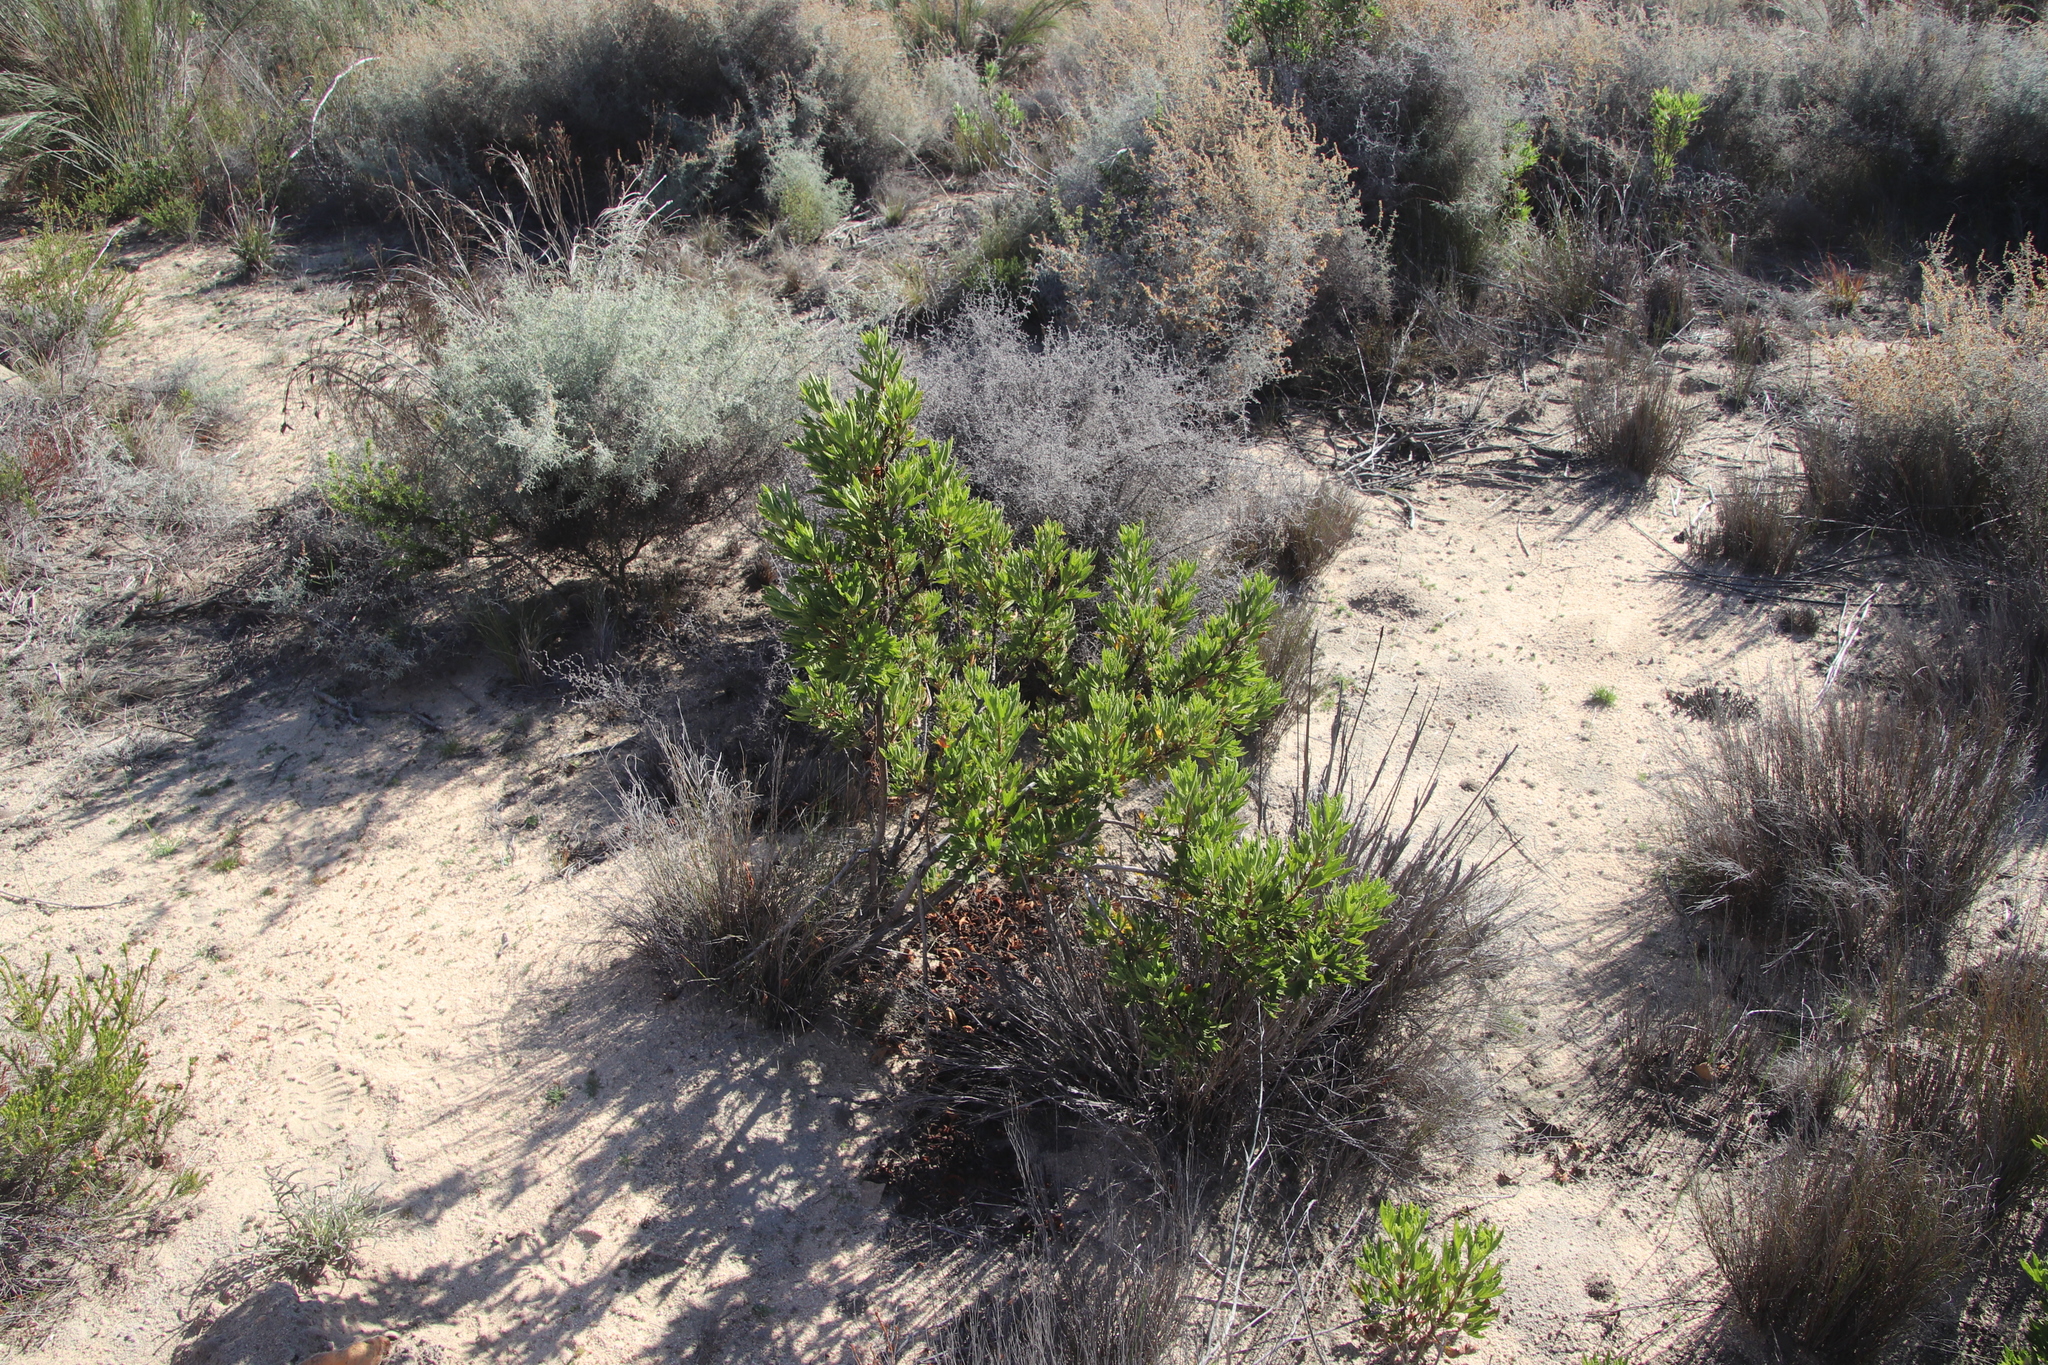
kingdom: Plantae
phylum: Tracheophyta
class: Magnoliopsida
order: Geraniales
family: Geraniaceae
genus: Pelargonium
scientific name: Pelargonium scabrum
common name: Apricot geranium
